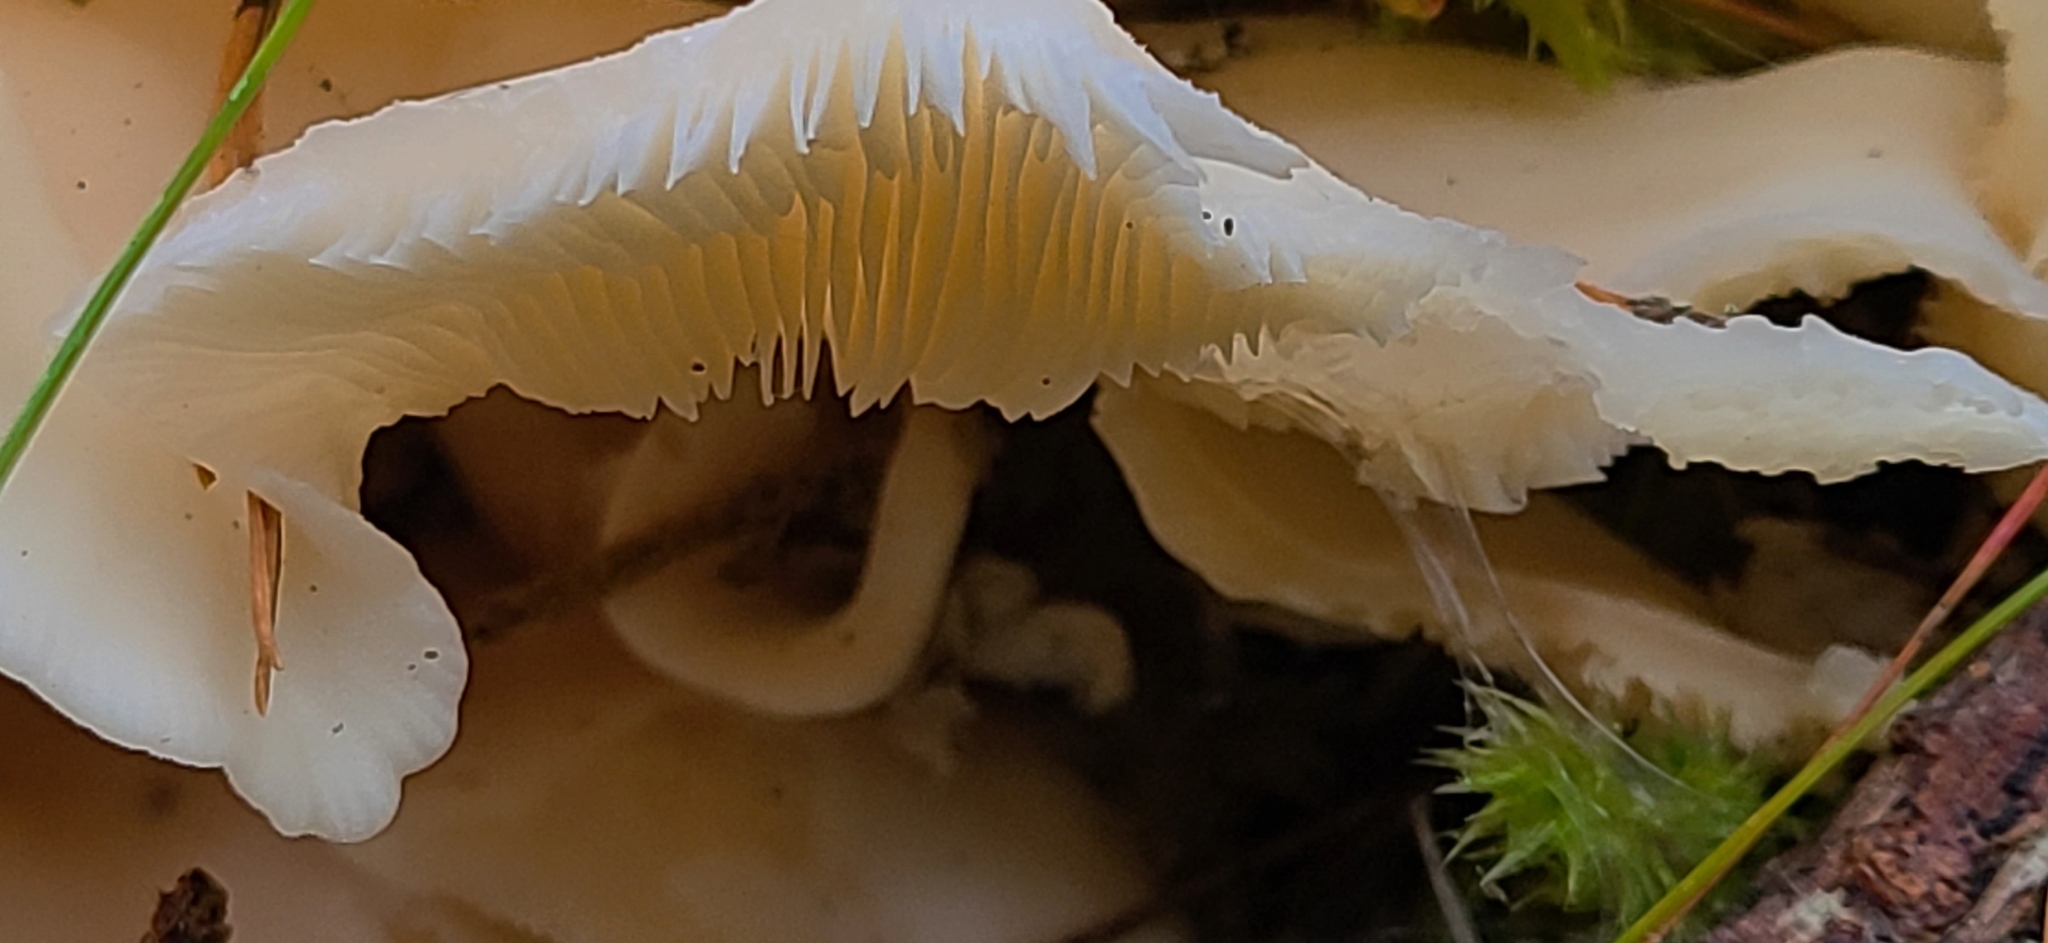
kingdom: Fungi
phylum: Basidiomycota
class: Agaricomycetes
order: Agaricales
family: Marasmiaceae
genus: Pleurocybella
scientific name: Pleurocybella porrigens
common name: Angel's wings
